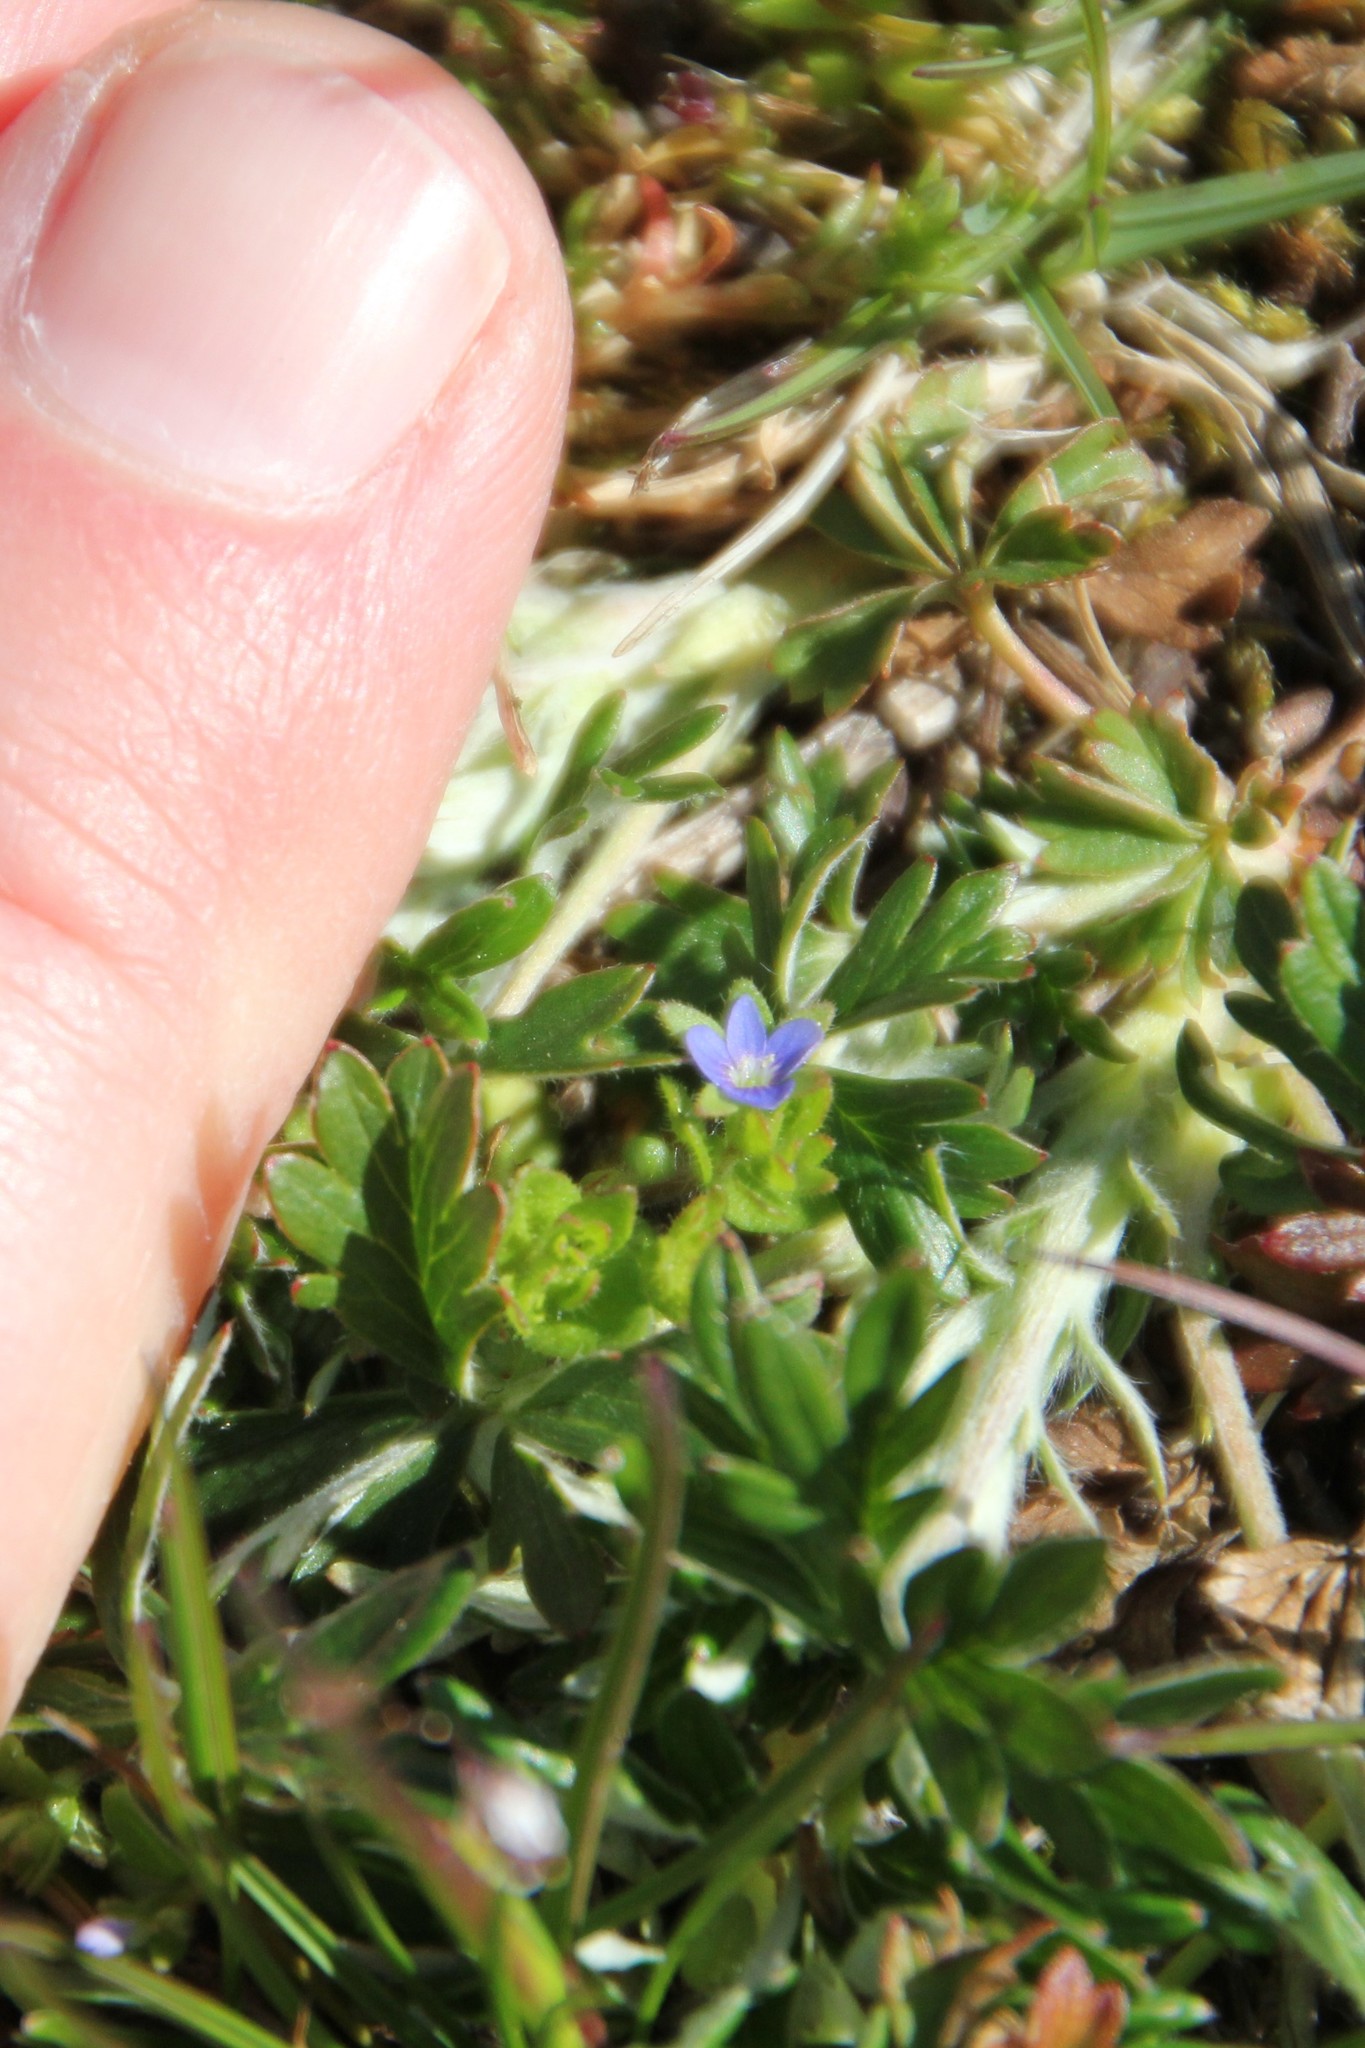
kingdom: Plantae
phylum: Tracheophyta
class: Magnoliopsida
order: Lamiales
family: Plantaginaceae
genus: Veronica
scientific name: Veronica arvensis
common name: Corn speedwell
